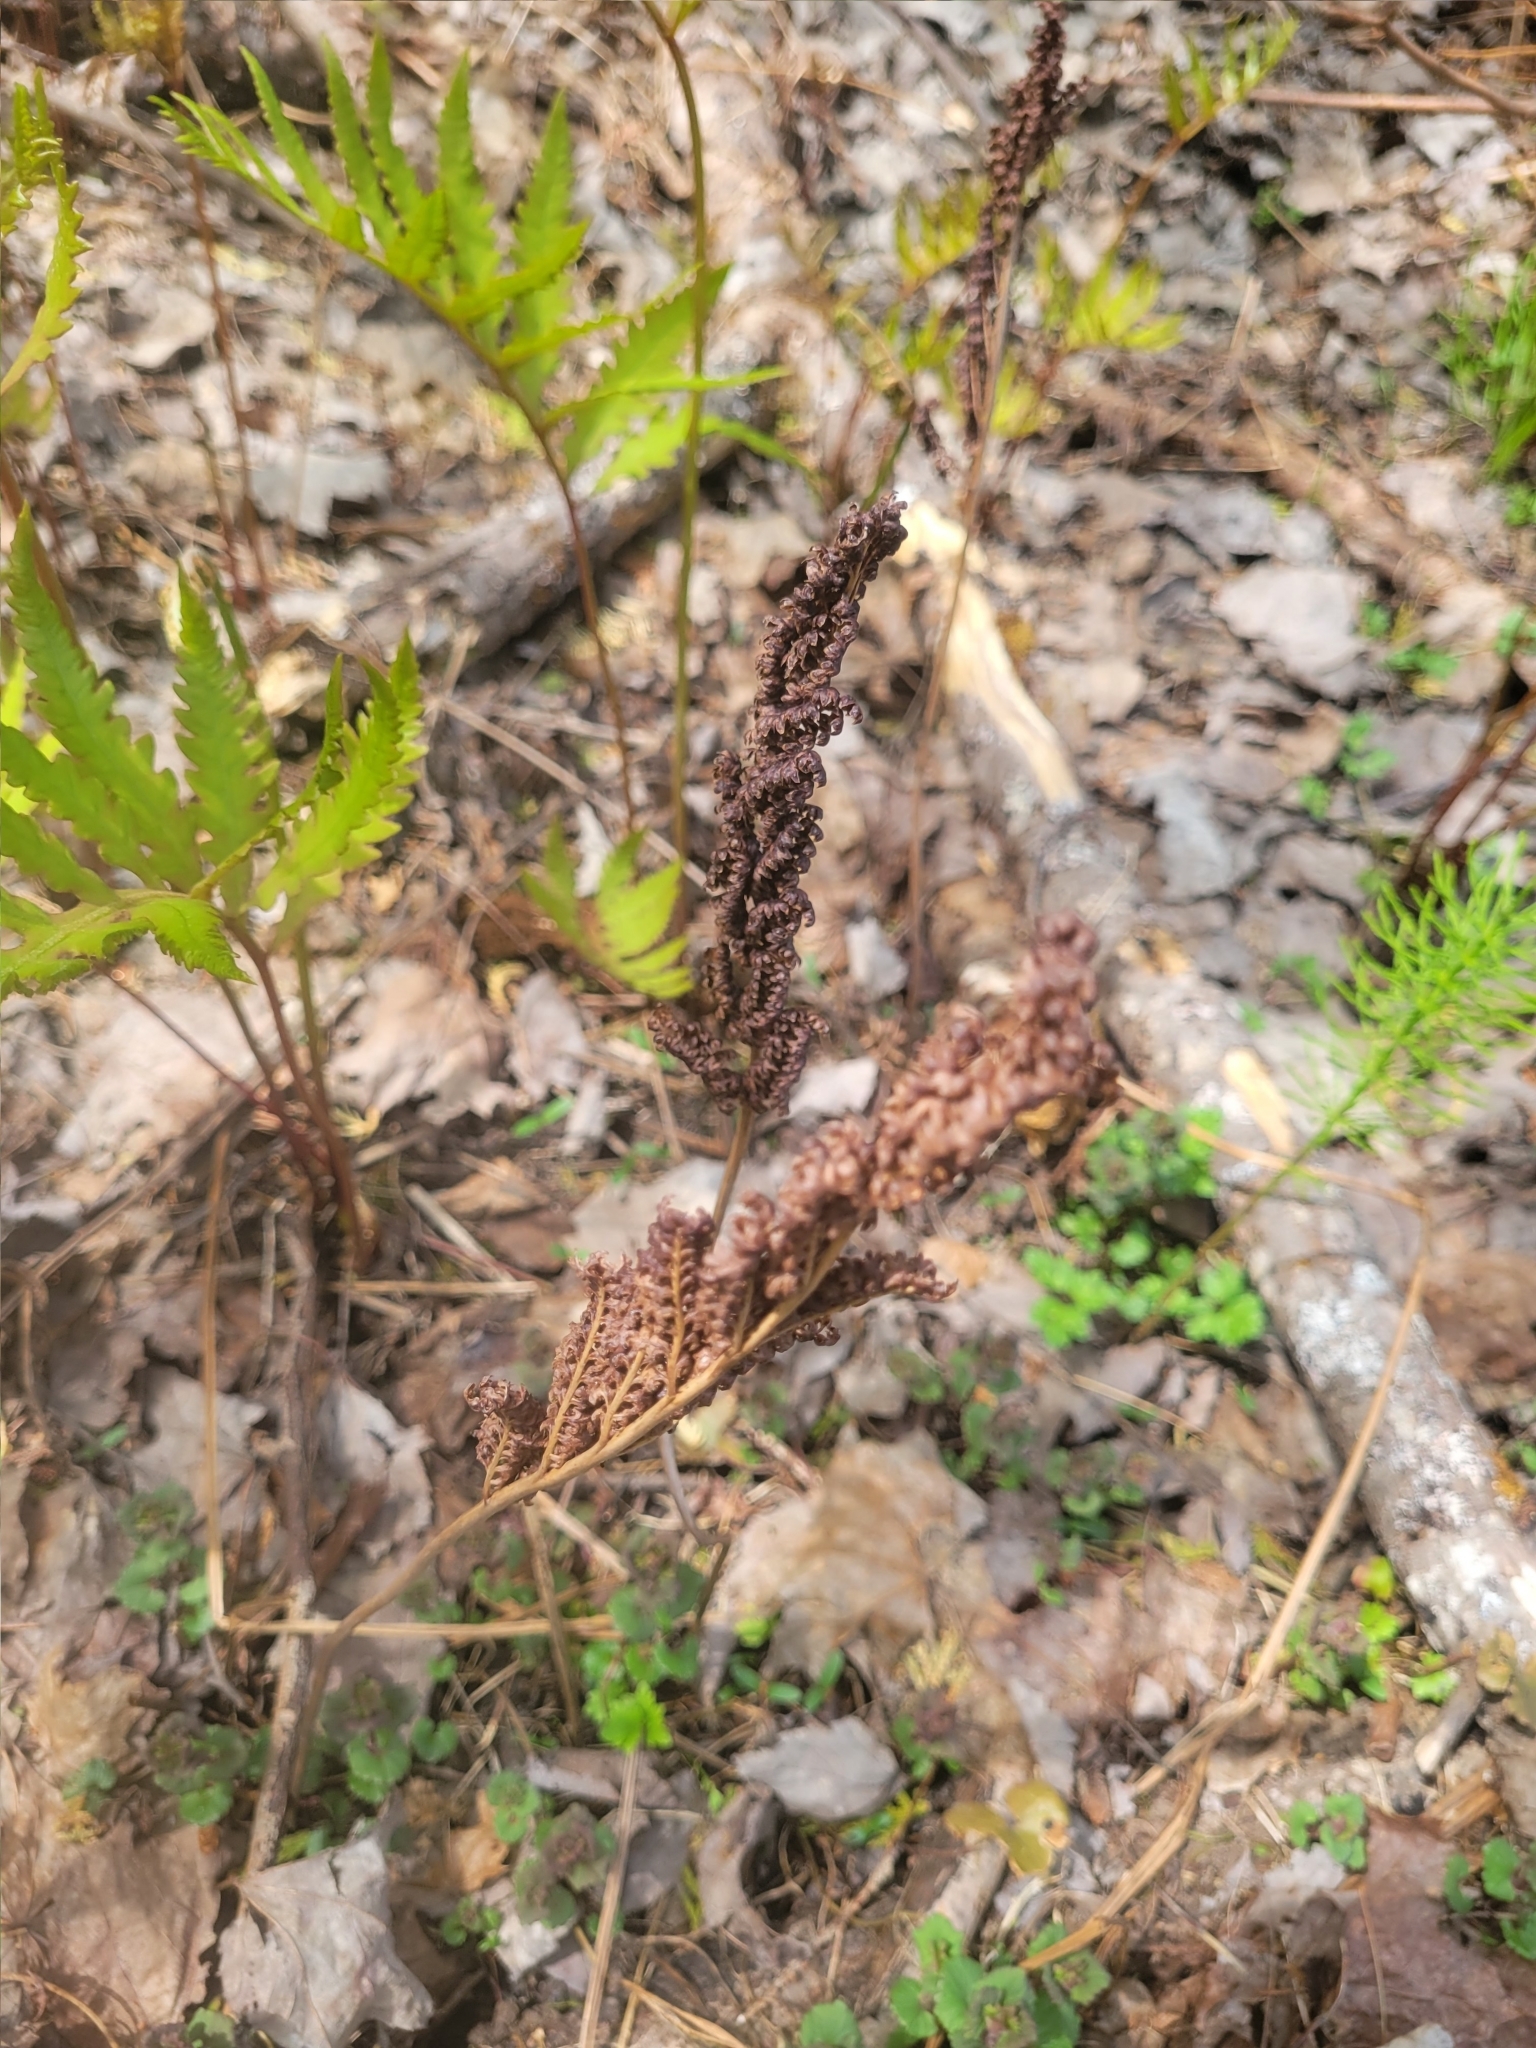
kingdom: Plantae
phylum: Tracheophyta
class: Polypodiopsida
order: Polypodiales
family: Onocleaceae
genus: Onoclea
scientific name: Onoclea sensibilis
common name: Sensitive fern
